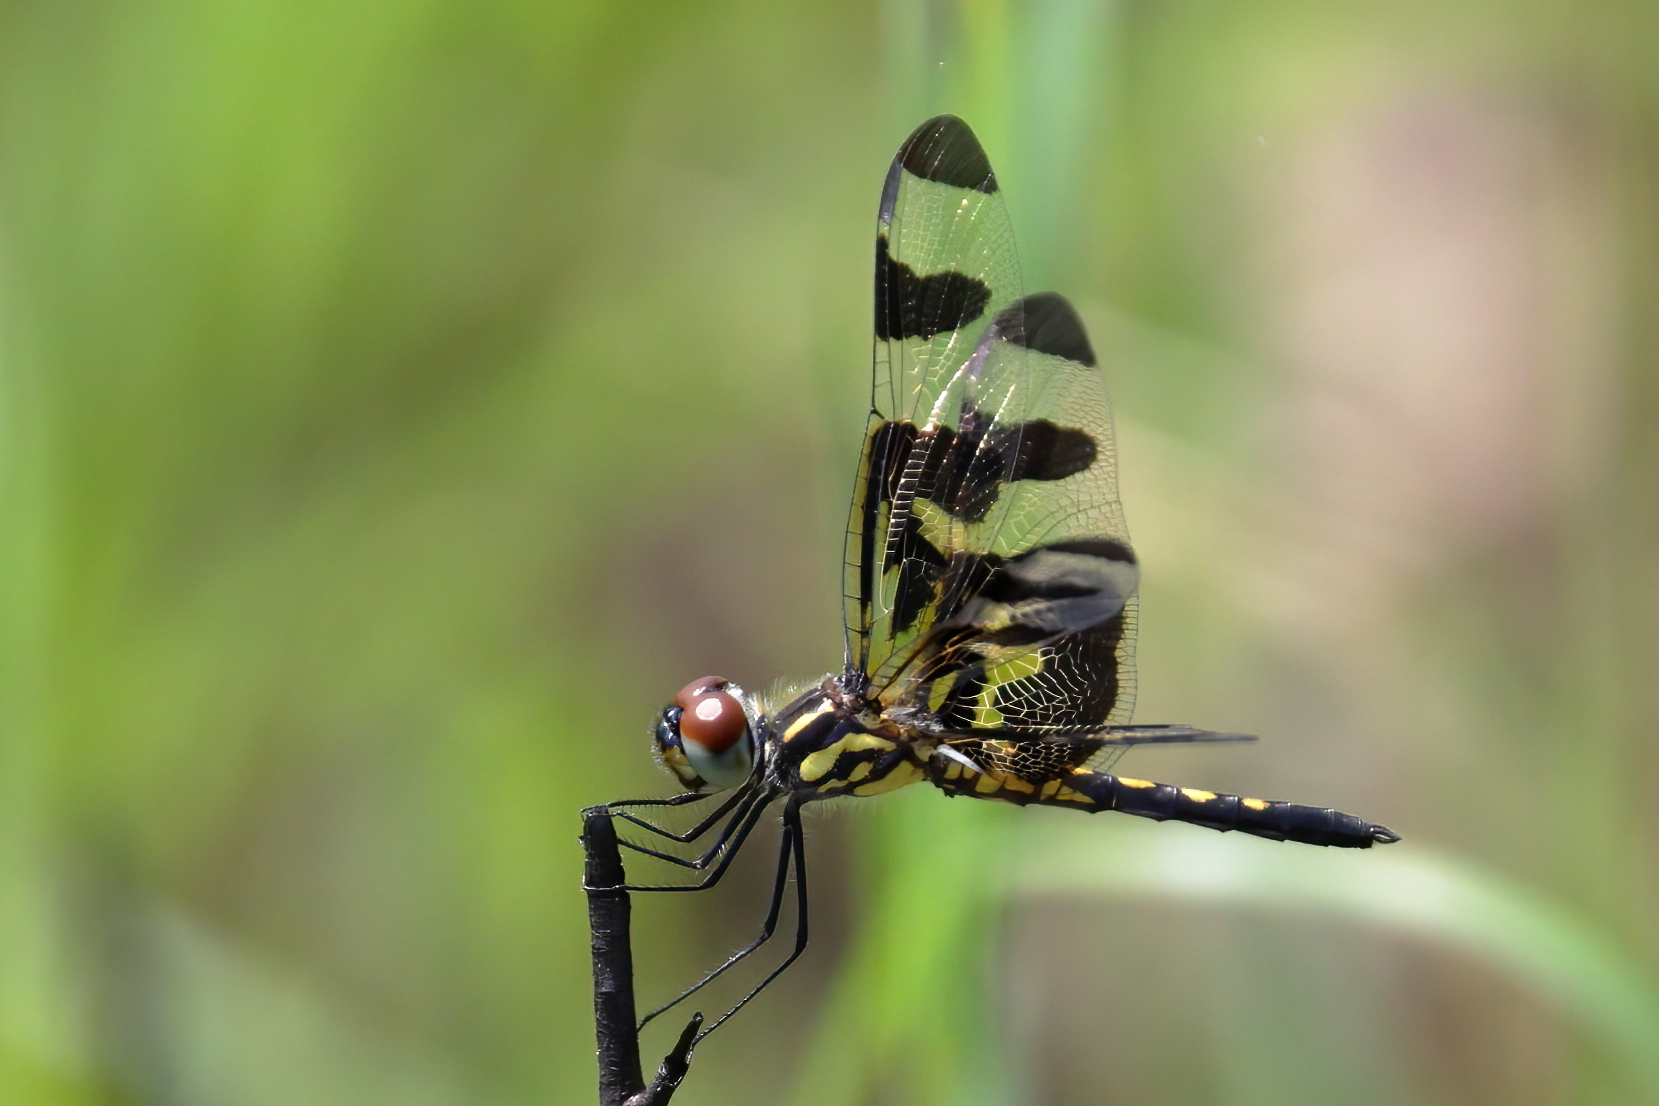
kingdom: Animalia
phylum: Arthropoda
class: Insecta
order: Odonata
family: Libellulidae
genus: Celithemis
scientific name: Celithemis fasciata
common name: Banded pennant
